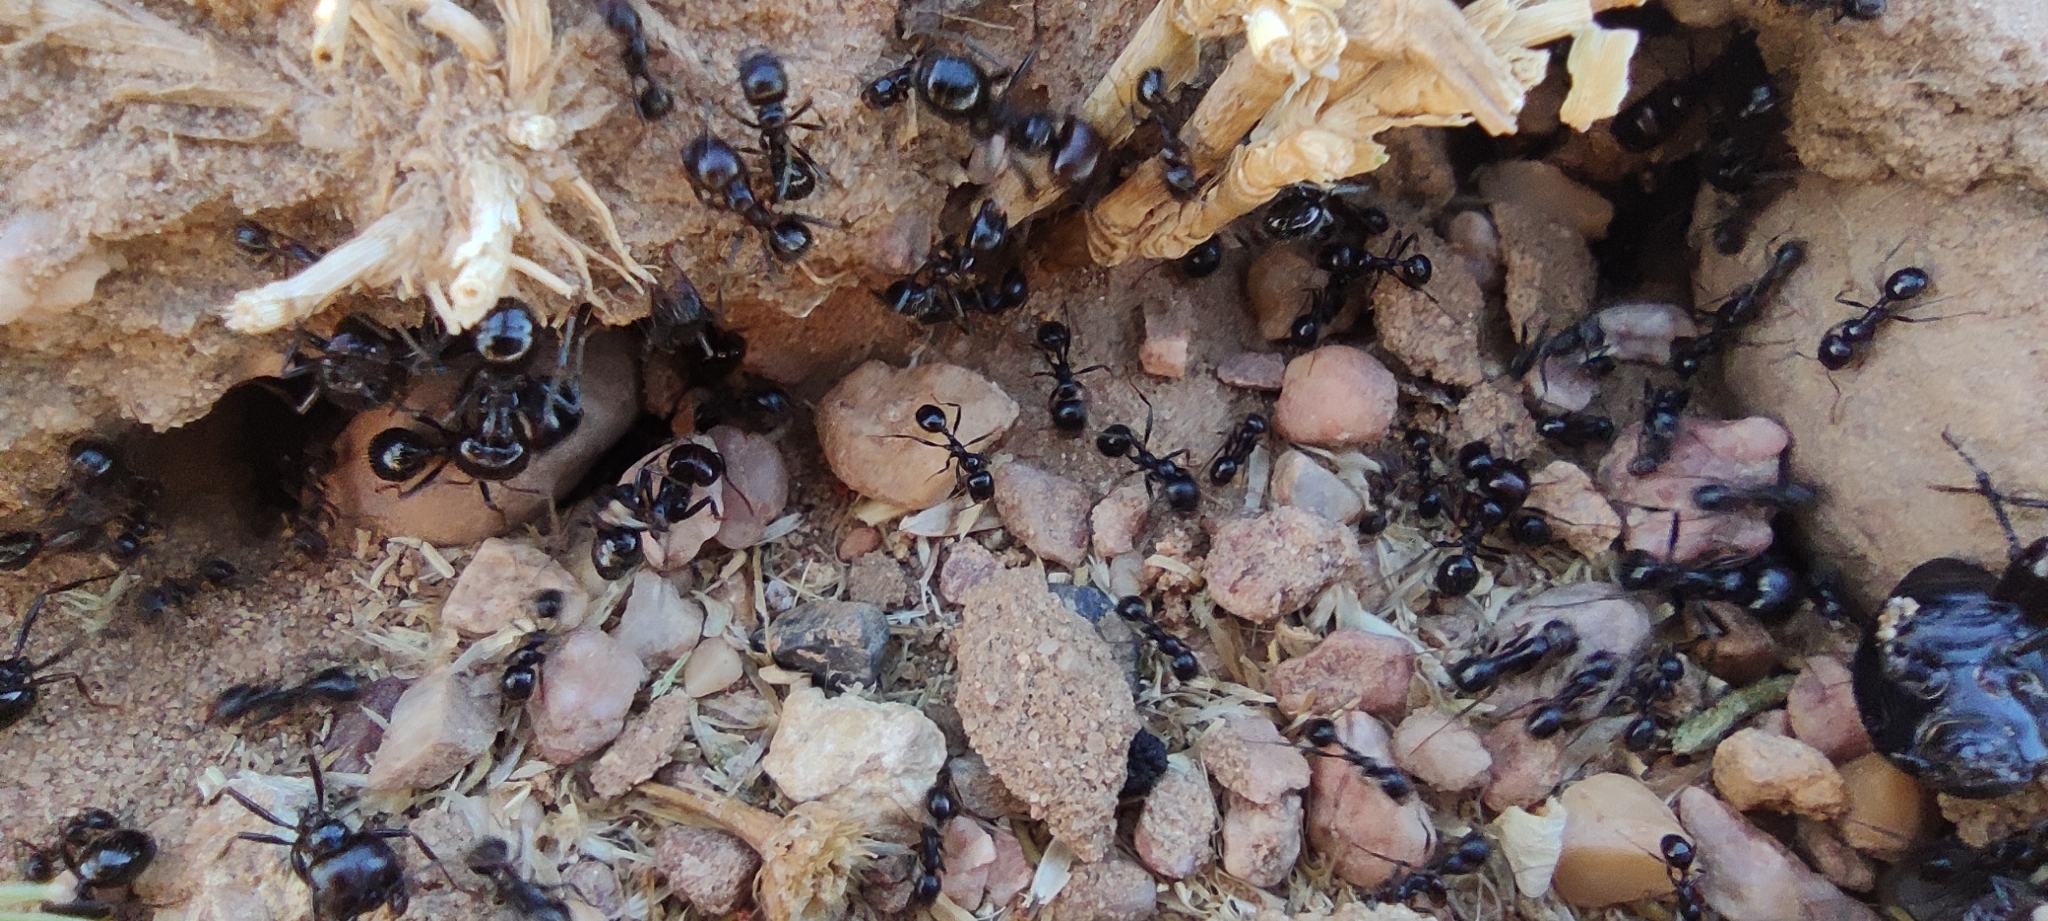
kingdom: Animalia
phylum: Arthropoda
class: Insecta
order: Hymenoptera
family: Formicidae
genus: Messor
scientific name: Messor barbarus
